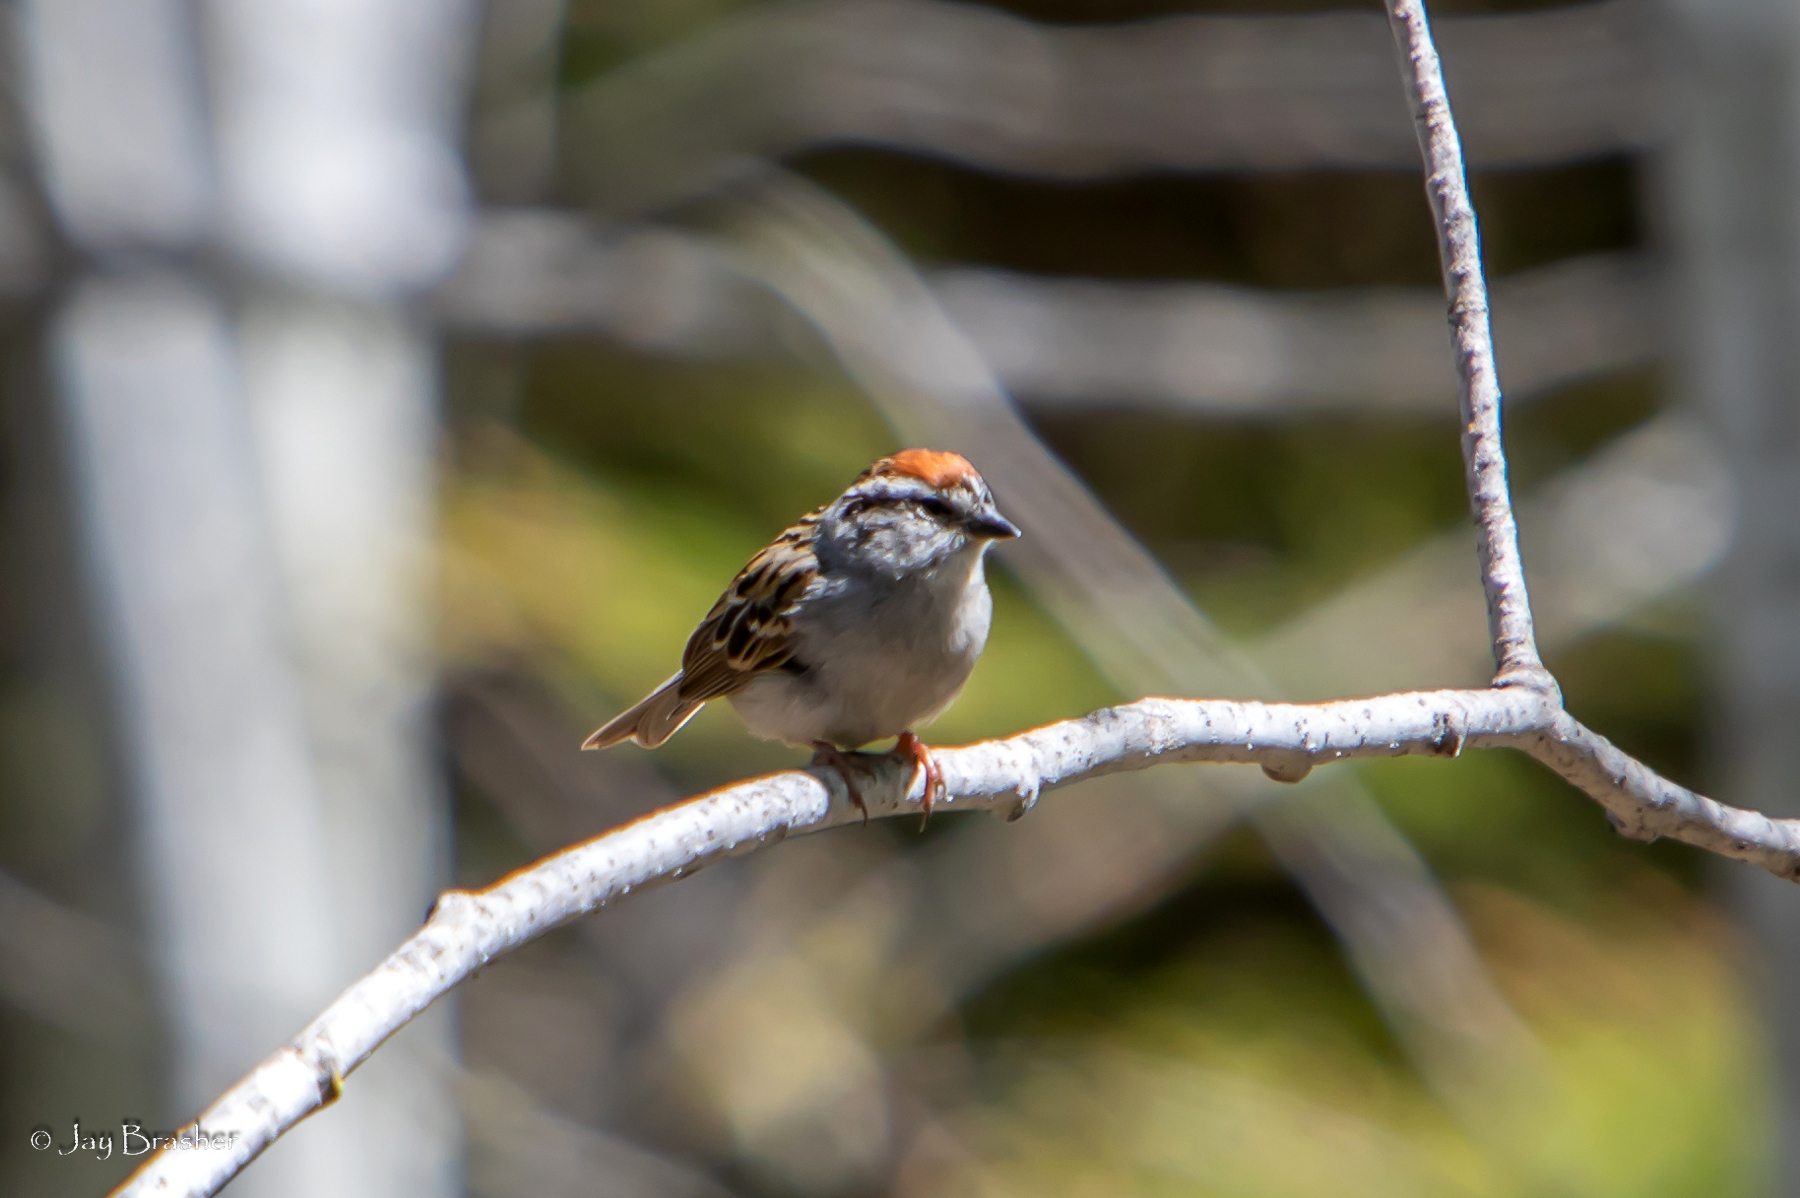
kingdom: Animalia
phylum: Chordata
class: Aves
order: Passeriformes
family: Passerellidae
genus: Spizella
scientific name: Spizella passerina
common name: Chipping sparrow
